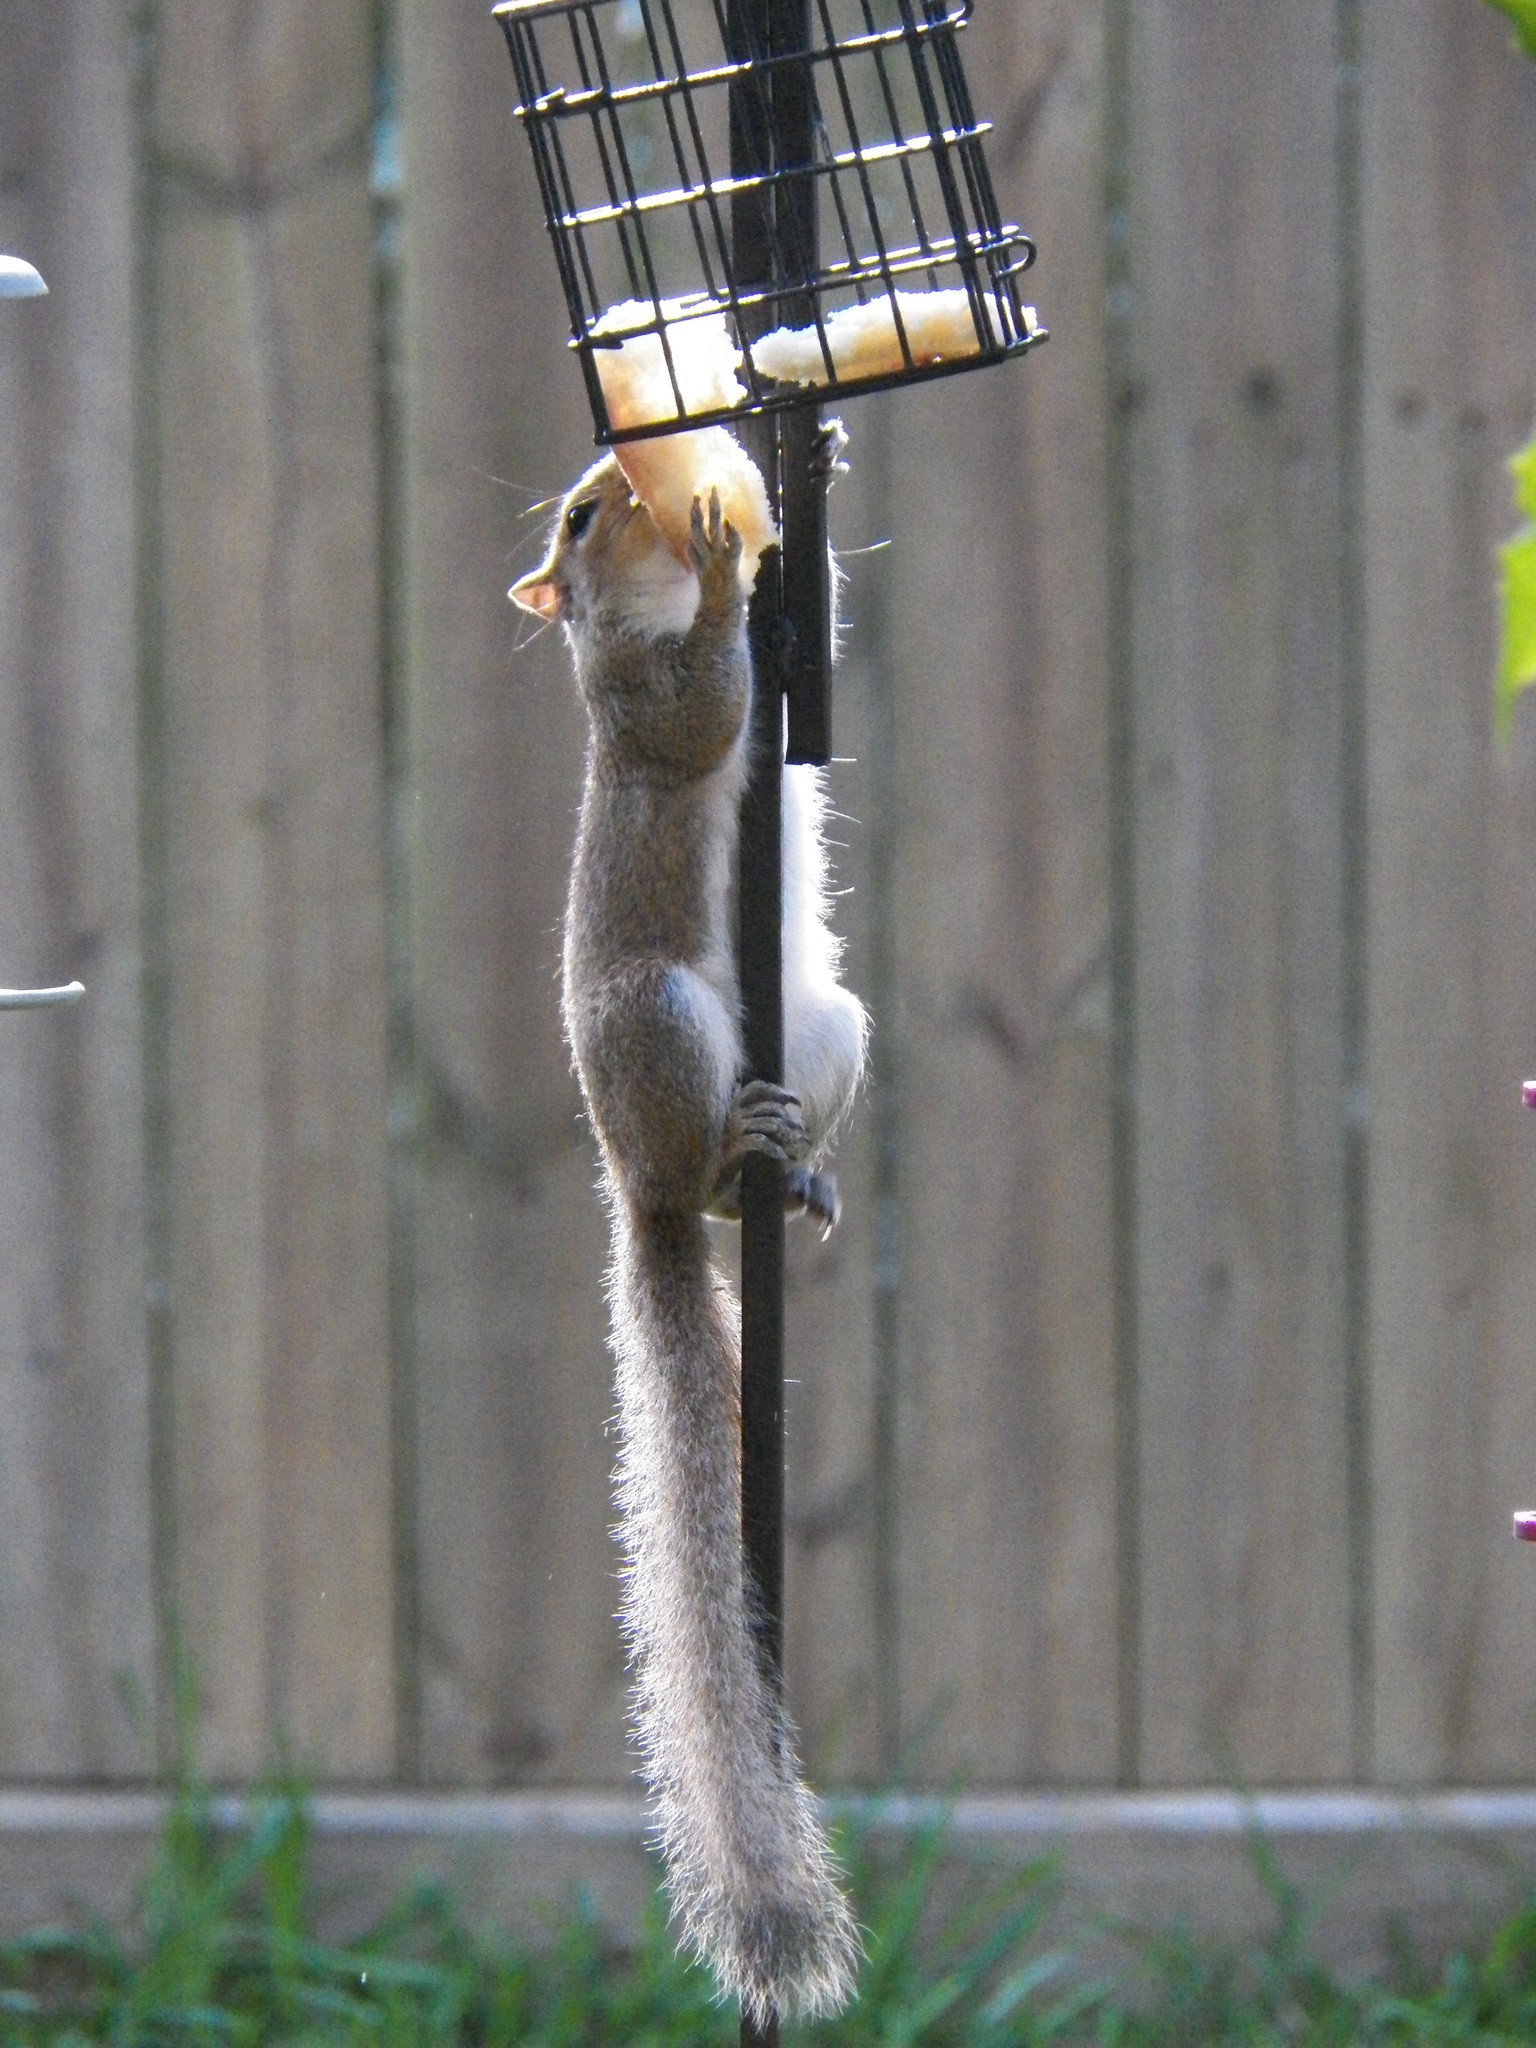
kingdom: Animalia
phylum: Chordata
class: Mammalia
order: Rodentia
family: Sciuridae
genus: Sciurus
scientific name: Sciurus carolinensis
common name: Eastern gray squirrel
